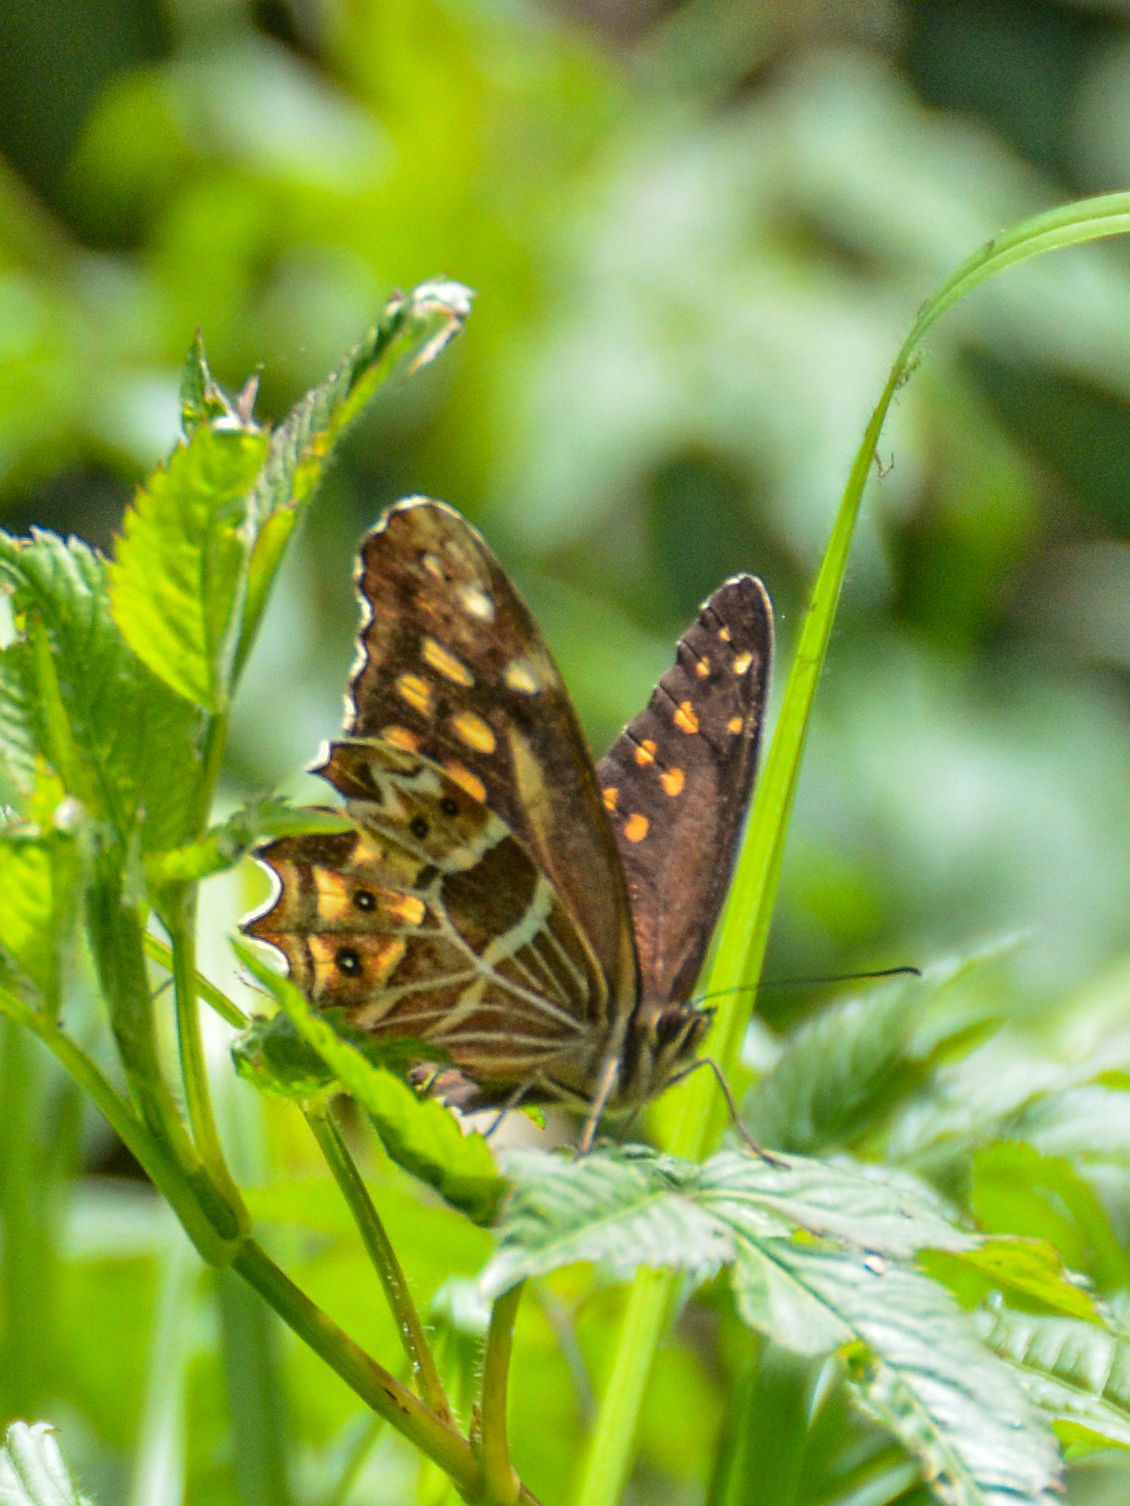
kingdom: Animalia
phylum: Arthropoda
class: Insecta
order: Lepidoptera
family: Nymphalidae
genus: Oxeoschistus
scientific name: Oxeoschistus hilara
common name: Dot-banded satyr
